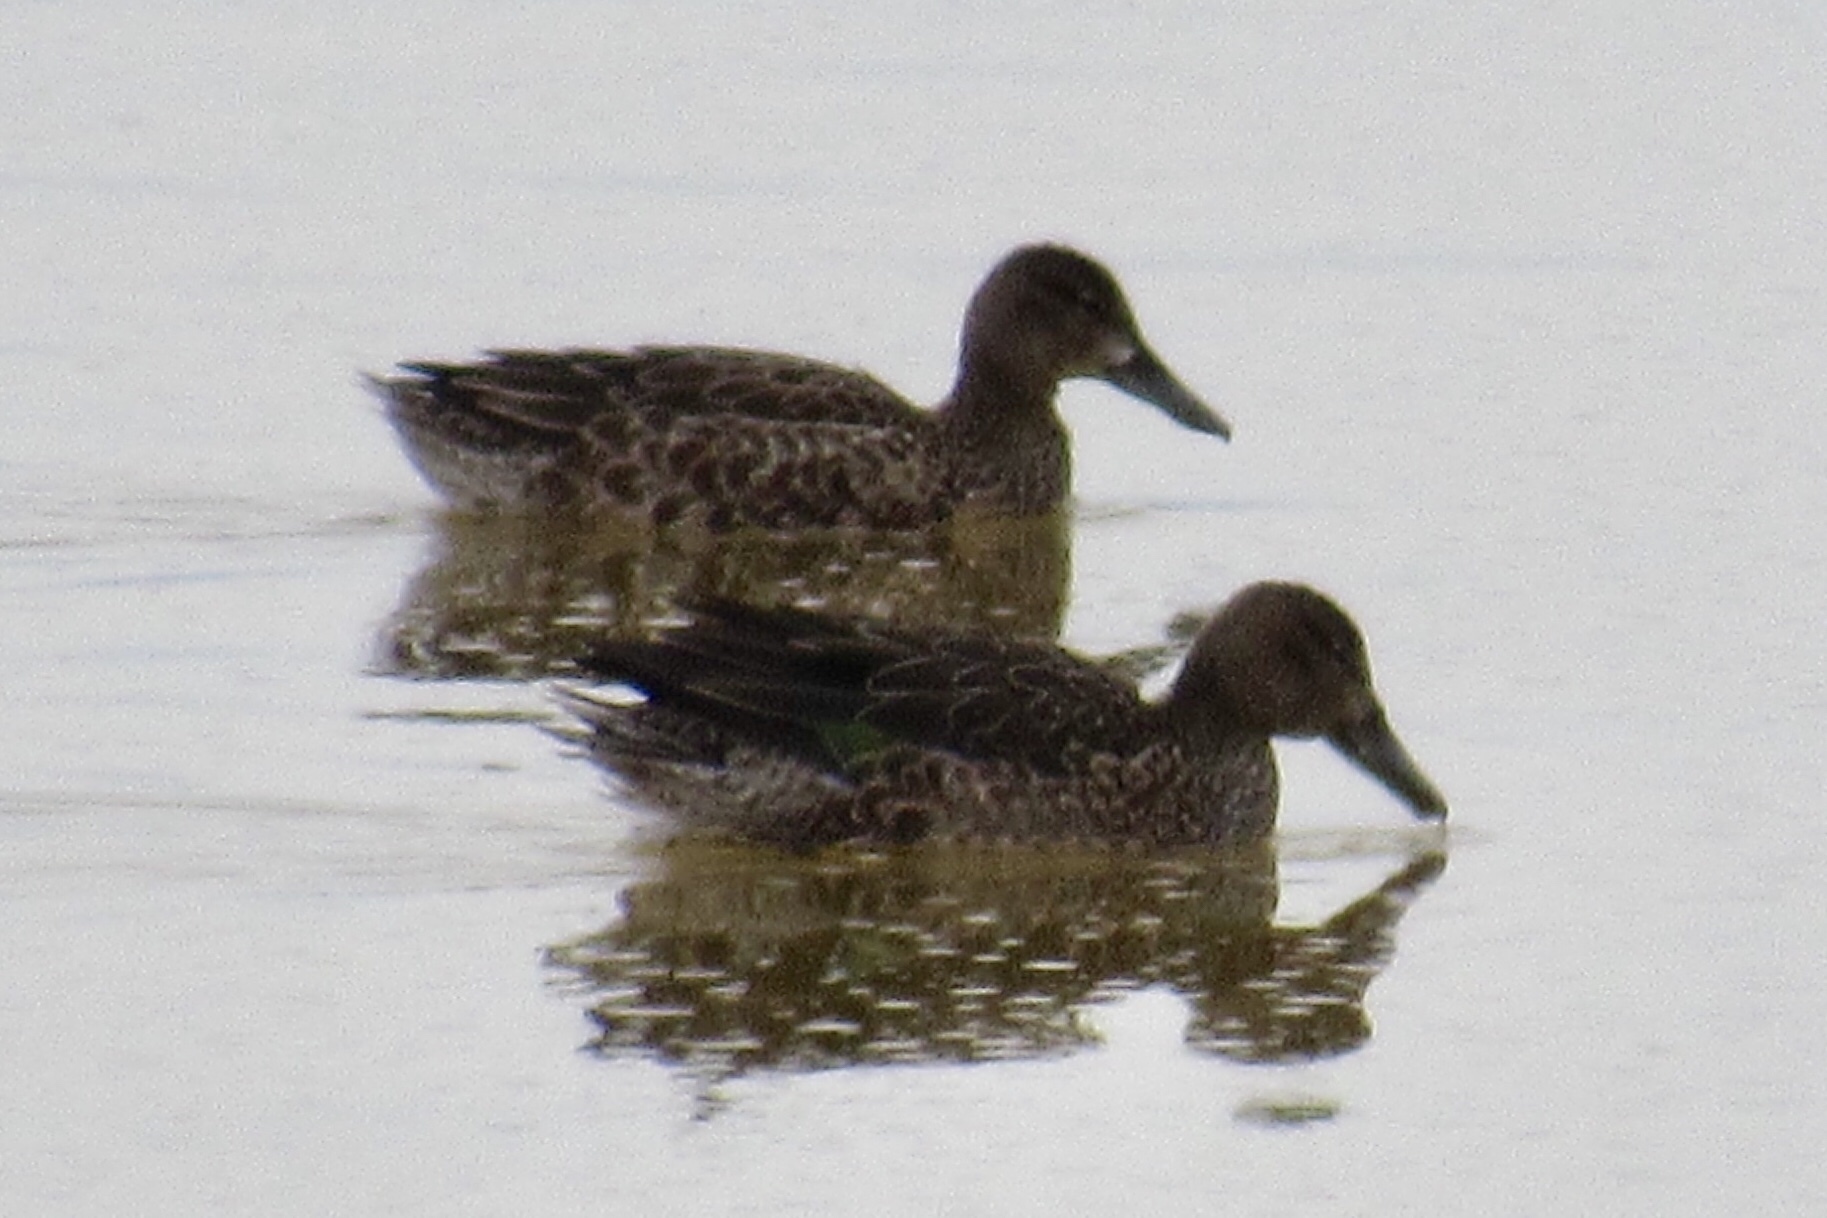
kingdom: Animalia
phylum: Chordata
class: Aves
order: Anseriformes
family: Anatidae
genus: Anas
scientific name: Anas crecca
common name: Eurasian teal
